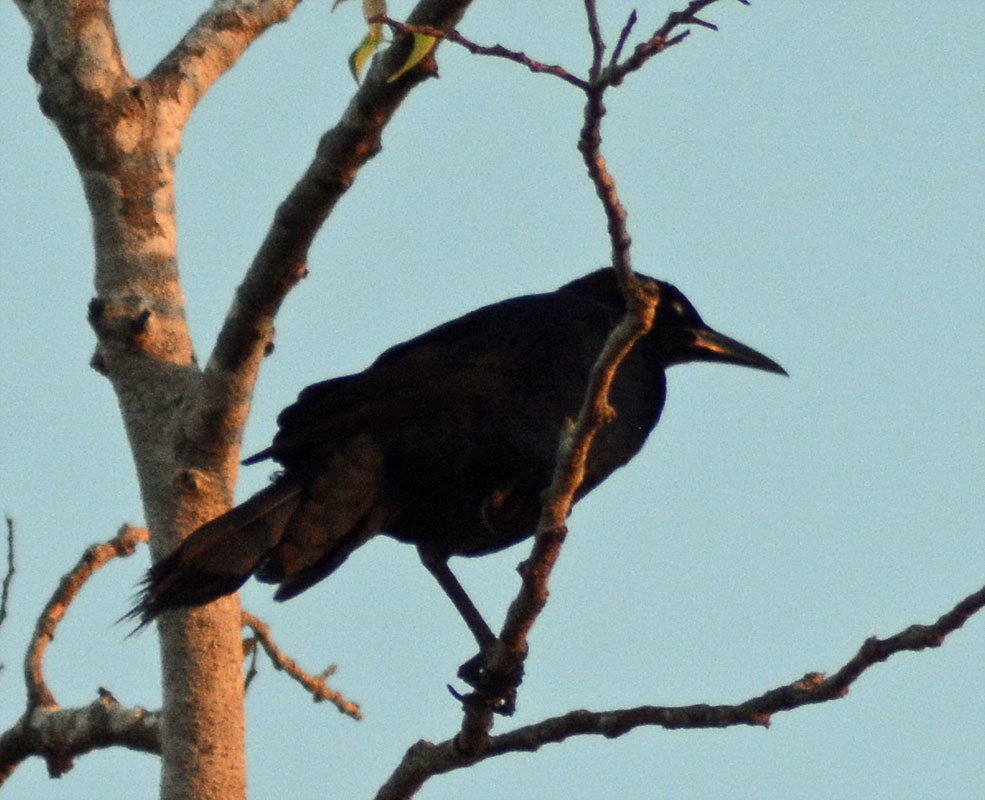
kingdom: Animalia
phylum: Chordata
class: Aves
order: Passeriformes
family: Icteridae
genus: Quiscalus
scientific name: Quiscalus mexicanus
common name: Great-tailed grackle
